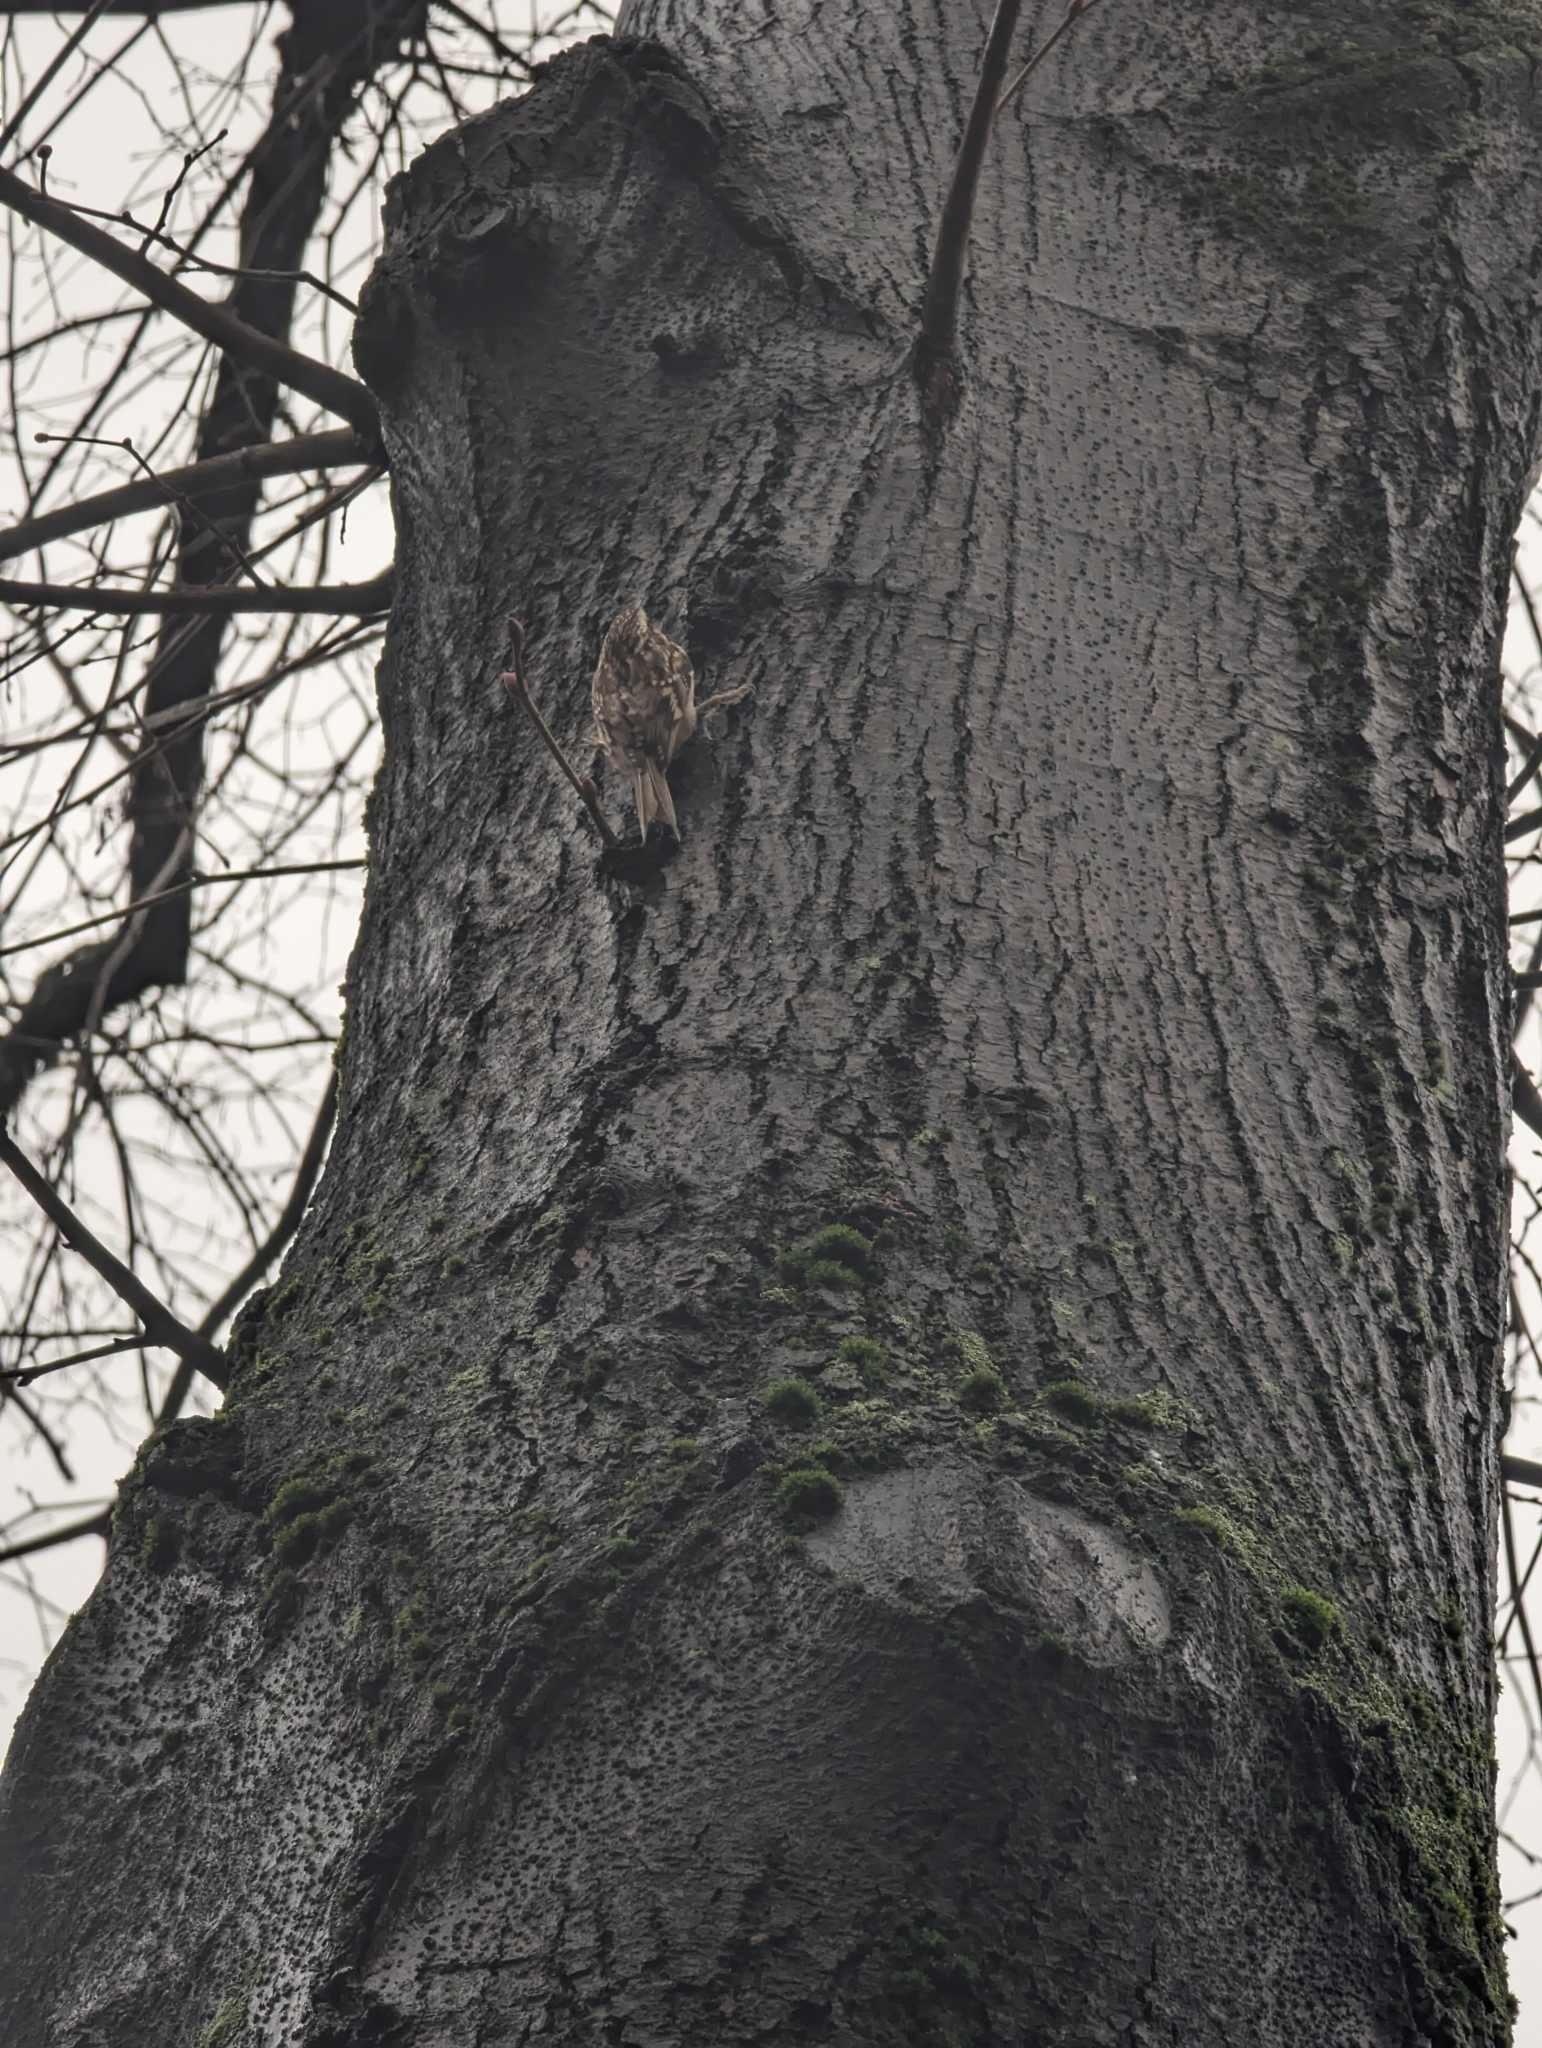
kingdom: Animalia
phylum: Chordata
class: Aves
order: Passeriformes
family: Certhiidae
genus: Certhia
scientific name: Certhia brachydactyla
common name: Short-toed treecreeper
